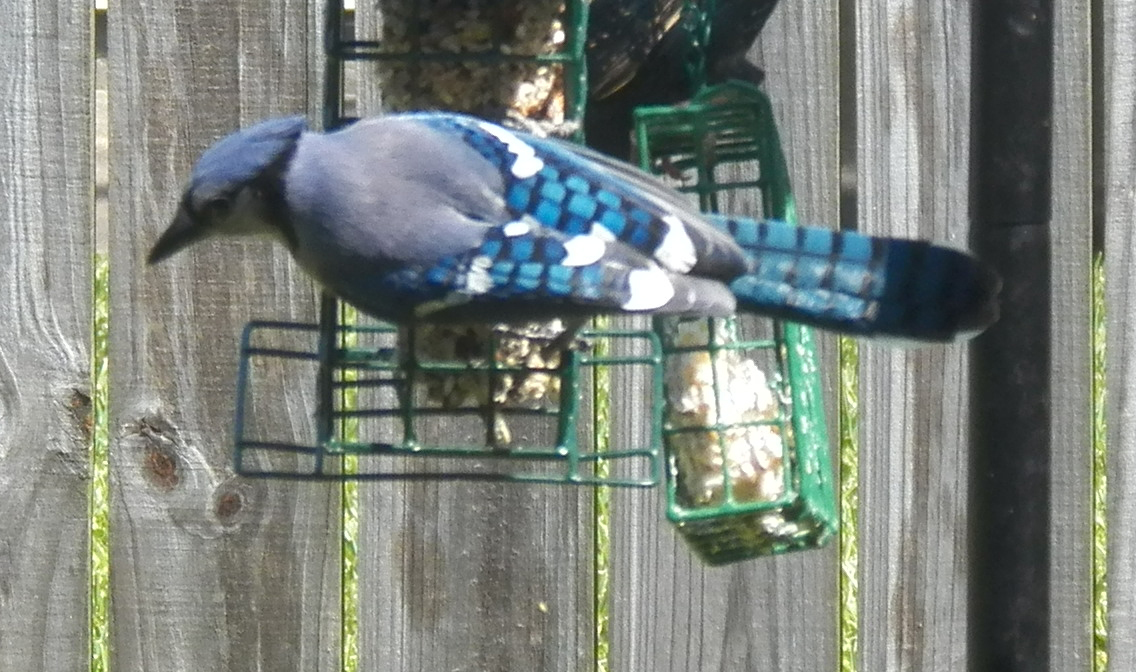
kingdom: Animalia
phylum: Chordata
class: Aves
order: Passeriformes
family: Corvidae
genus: Cyanocitta
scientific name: Cyanocitta cristata
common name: Blue jay
